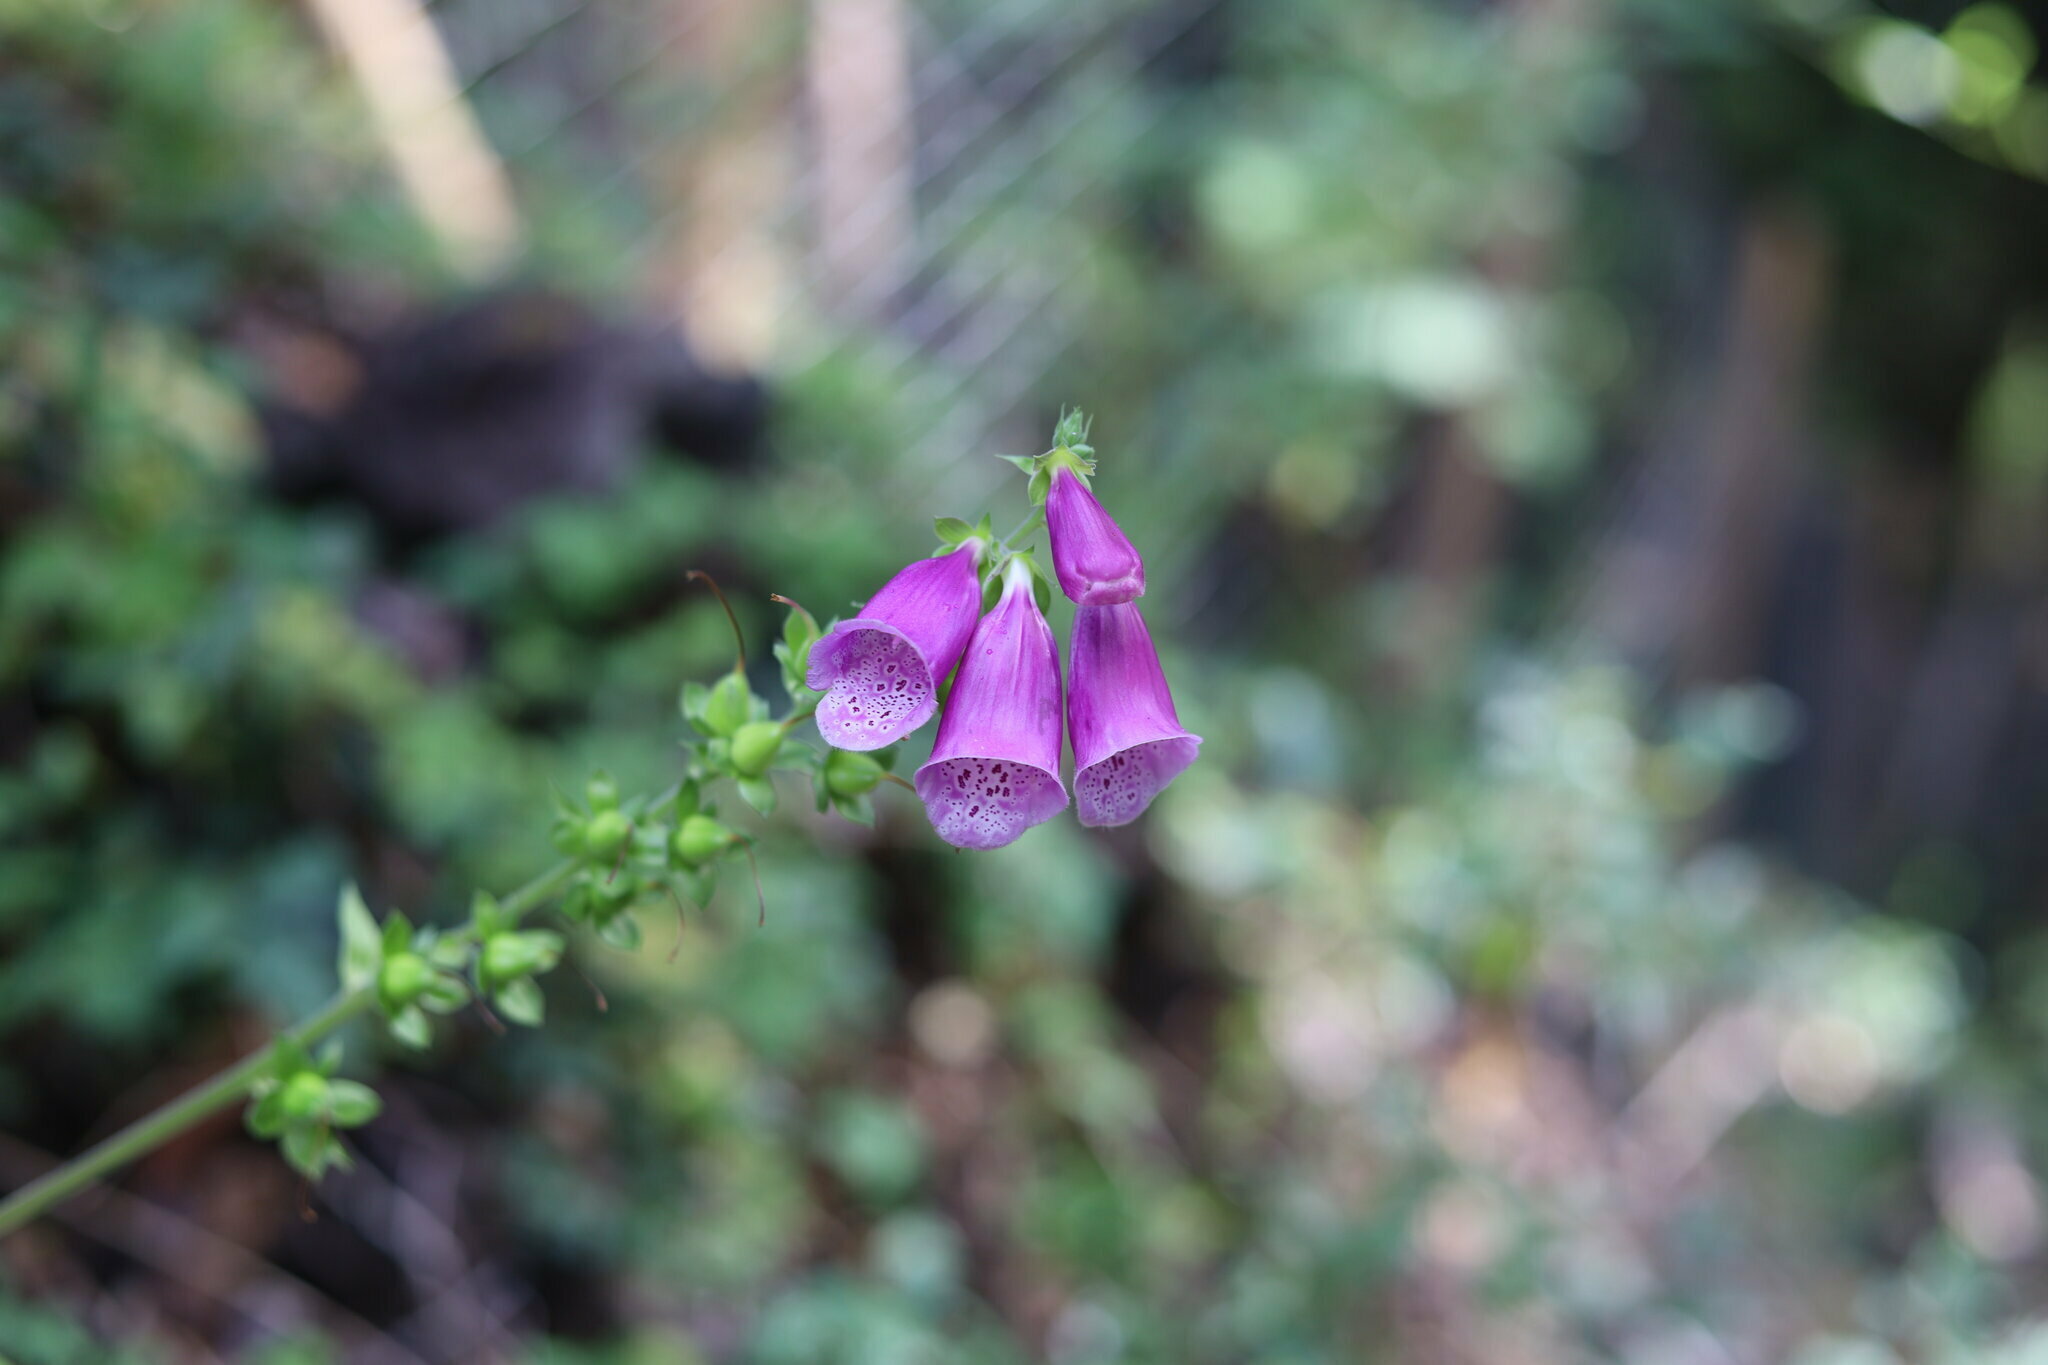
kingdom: Plantae
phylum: Tracheophyta
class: Magnoliopsida
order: Lamiales
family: Plantaginaceae
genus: Digitalis
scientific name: Digitalis purpurea
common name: Foxglove
